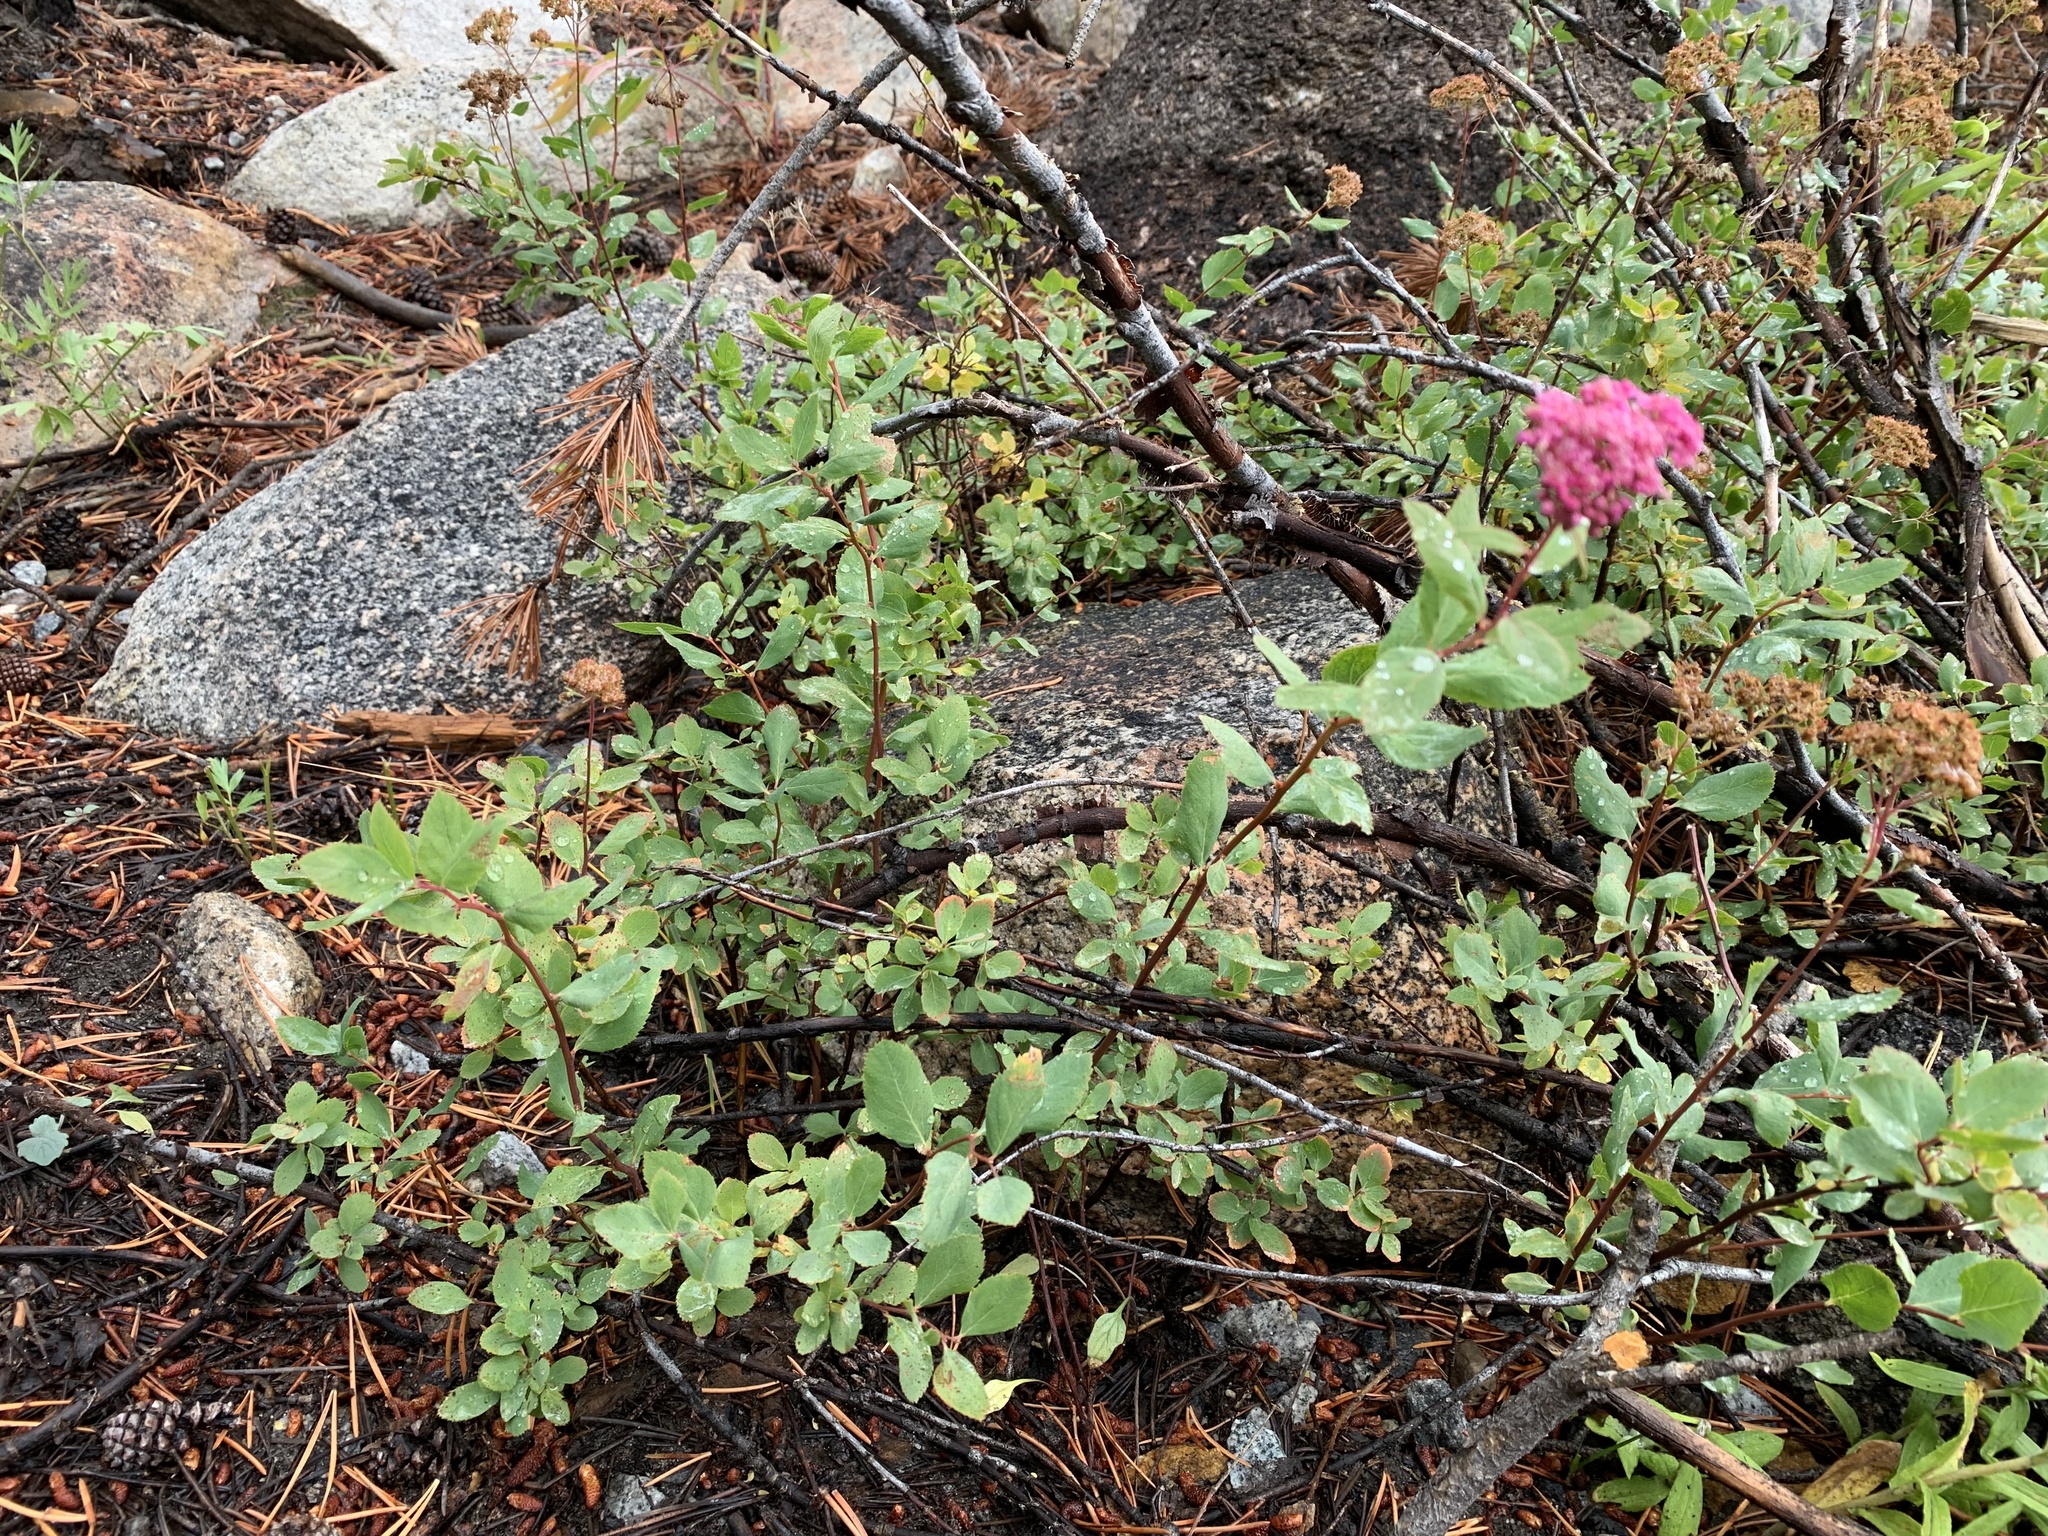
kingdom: Plantae
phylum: Tracheophyta
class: Magnoliopsida
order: Rosales
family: Rosaceae
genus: Spiraea
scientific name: Spiraea splendens
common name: Subalpine meadowsweet
